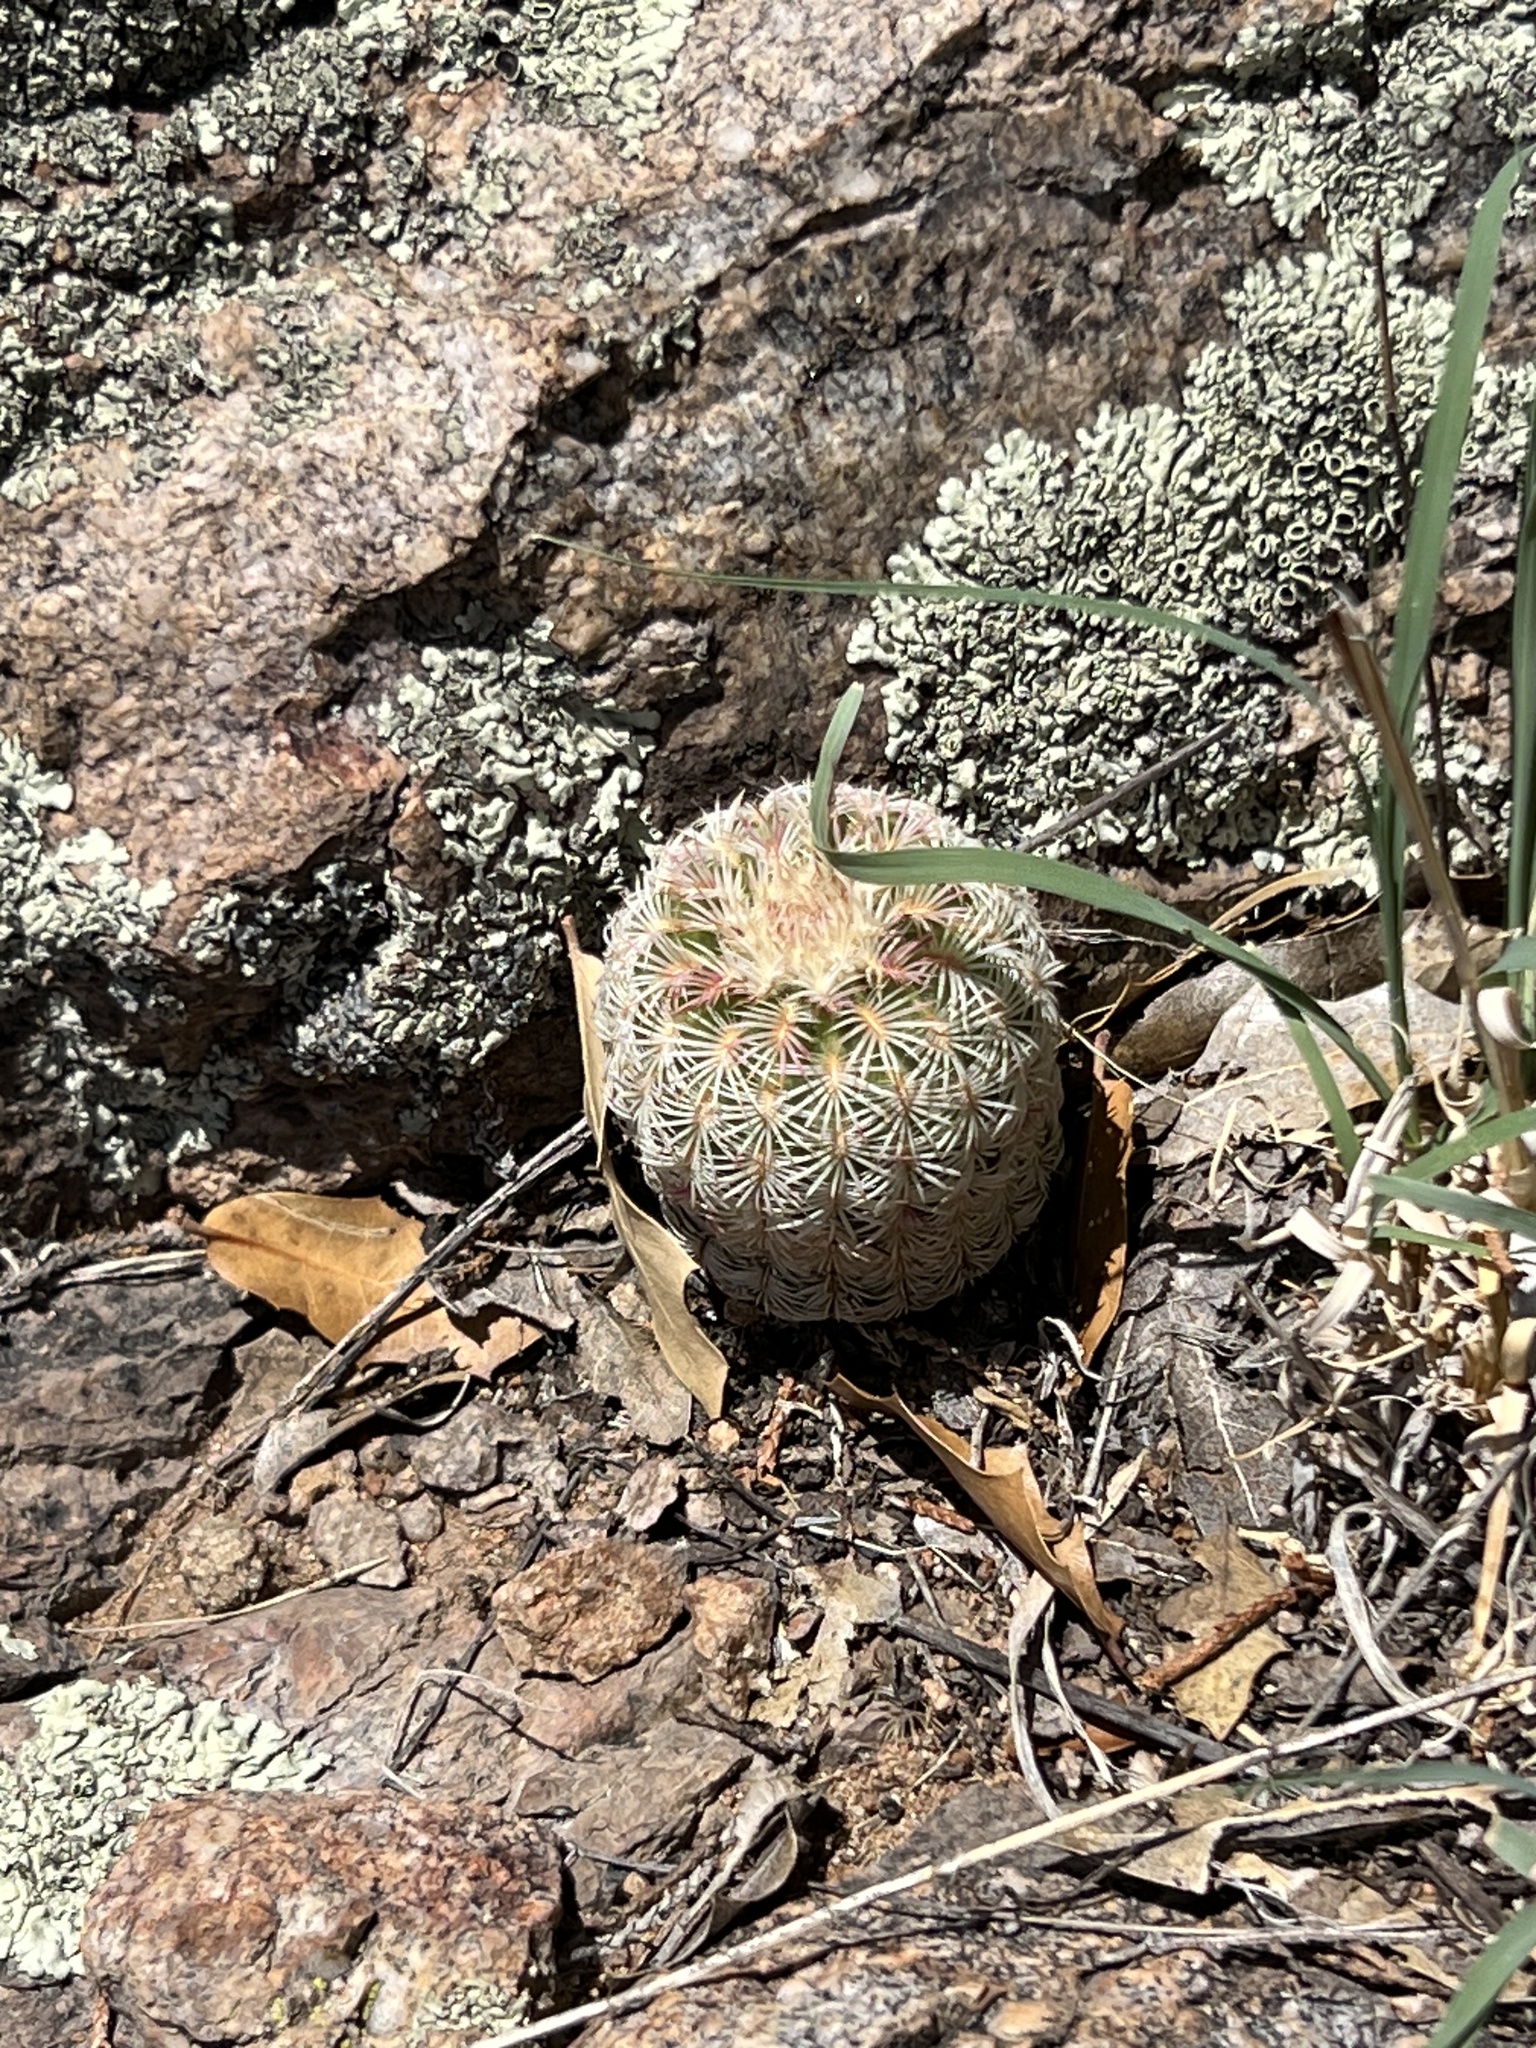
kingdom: Plantae
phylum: Tracheophyta
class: Magnoliopsida
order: Caryophyllales
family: Cactaceae
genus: Echinocereus
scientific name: Echinocereus rigidissimus
